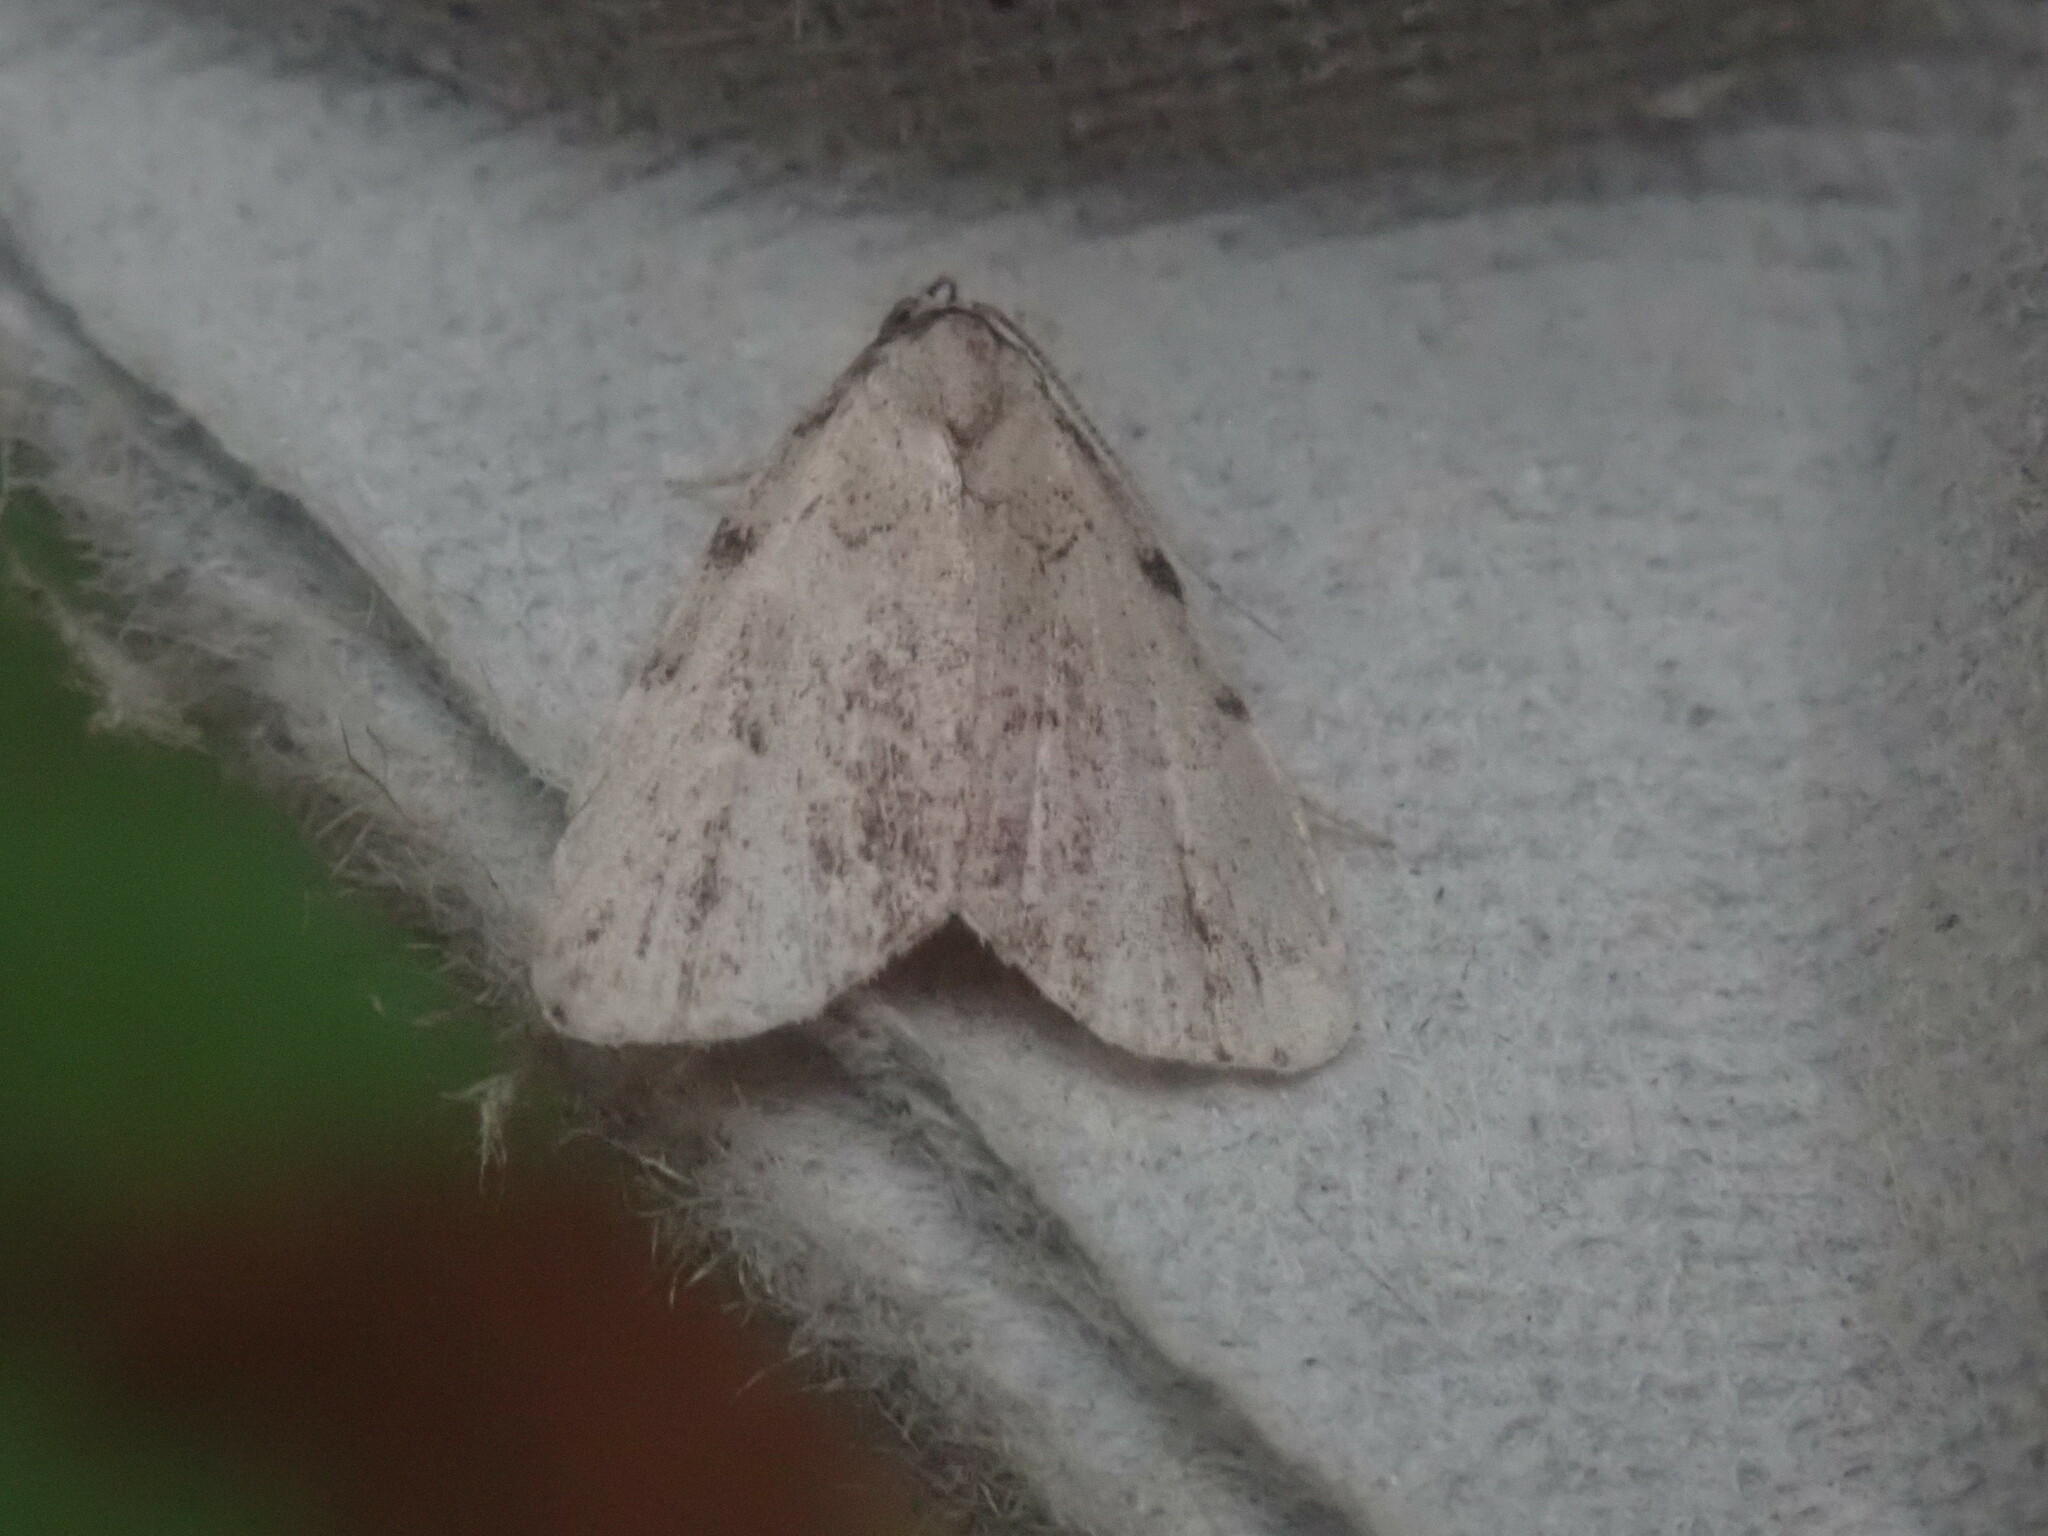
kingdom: Animalia
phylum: Arthropoda
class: Insecta
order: Lepidoptera
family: Erebidae
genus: Dyspyralis
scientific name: Dyspyralis puncticosta
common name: Spot-edged dyspyralis moth
